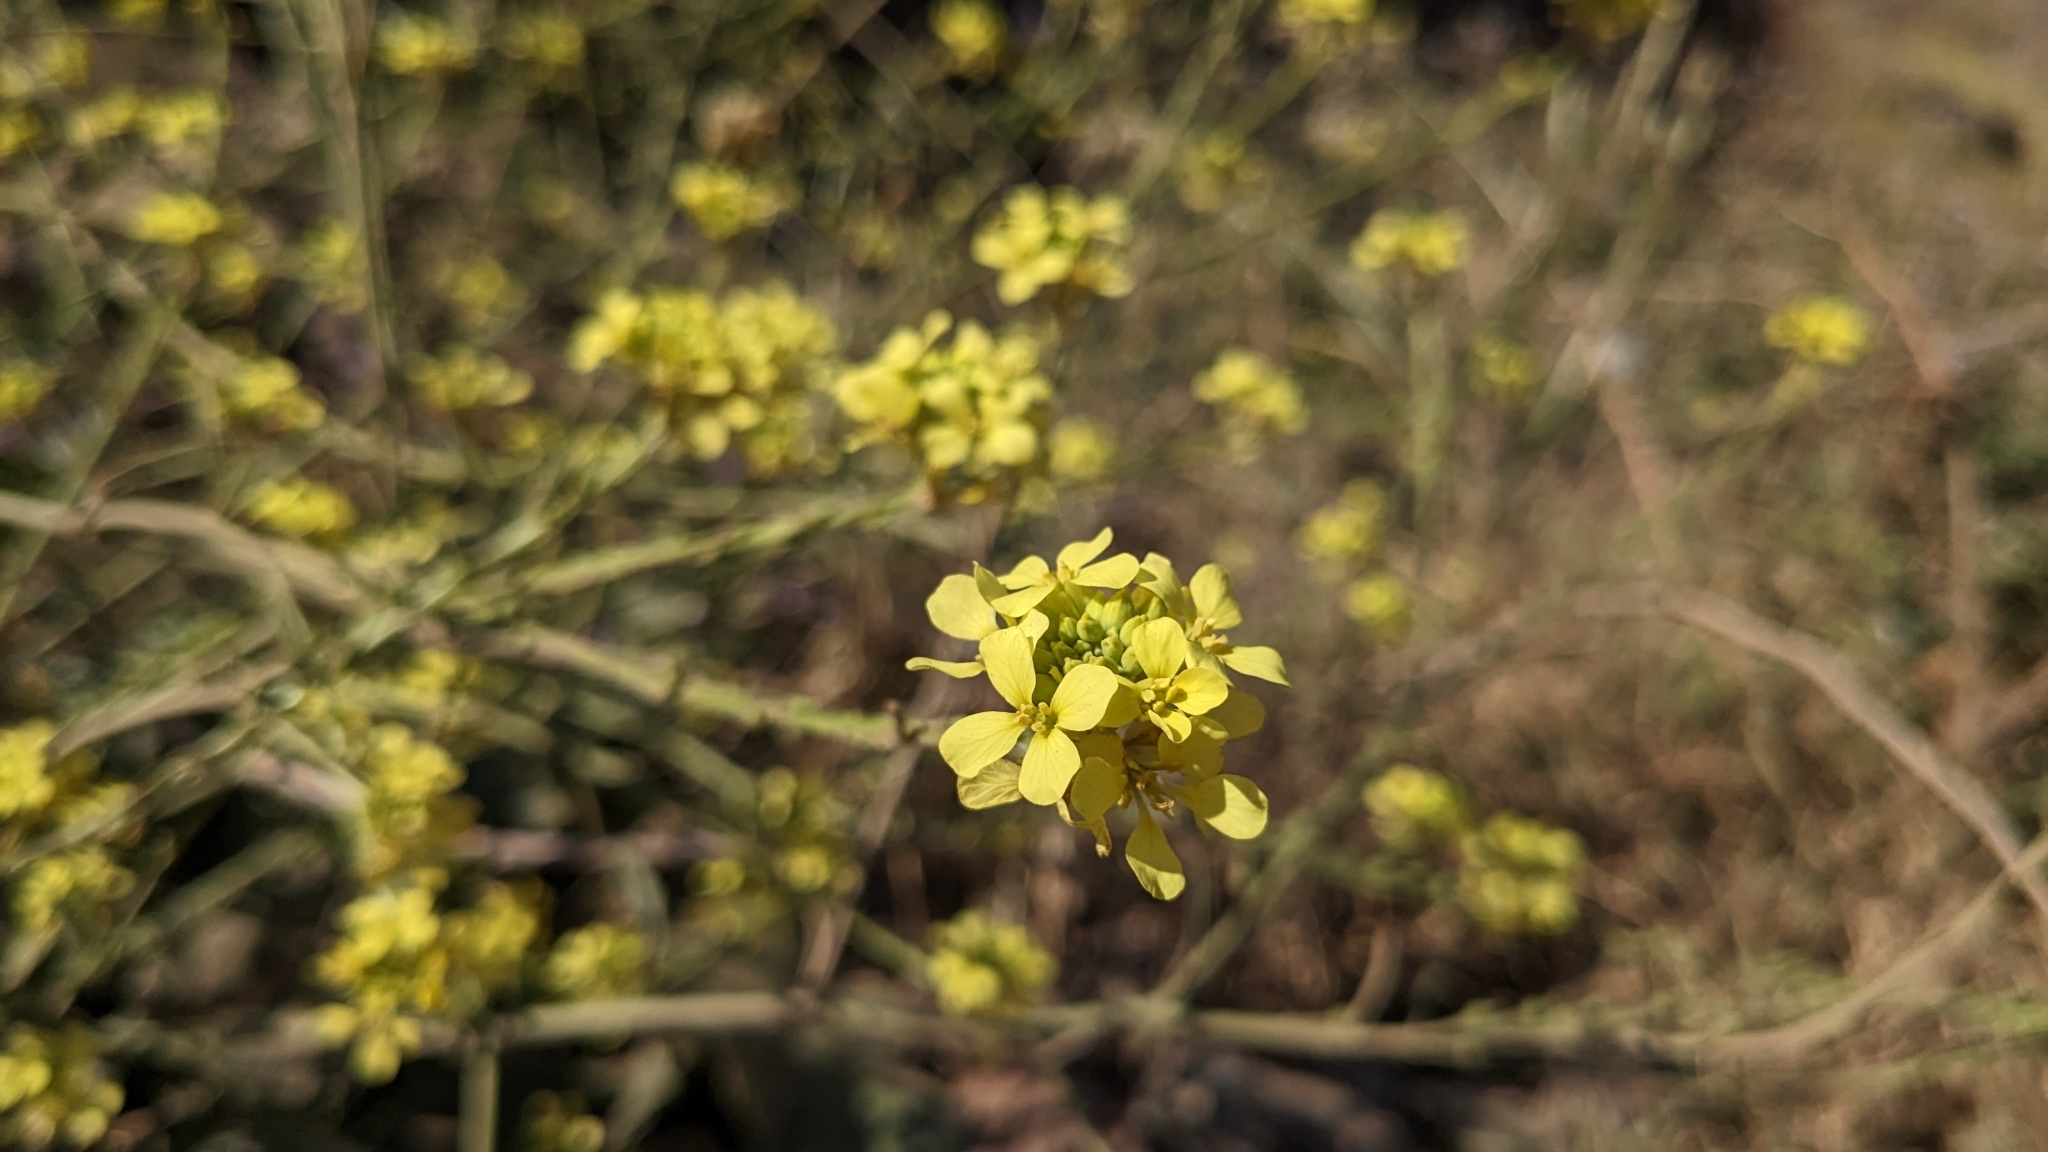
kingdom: Plantae
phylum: Tracheophyta
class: Magnoliopsida
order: Brassicales
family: Brassicaceae
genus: Rapistrum
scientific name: Rapistrum rugosum
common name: Annual bastardcabbage
